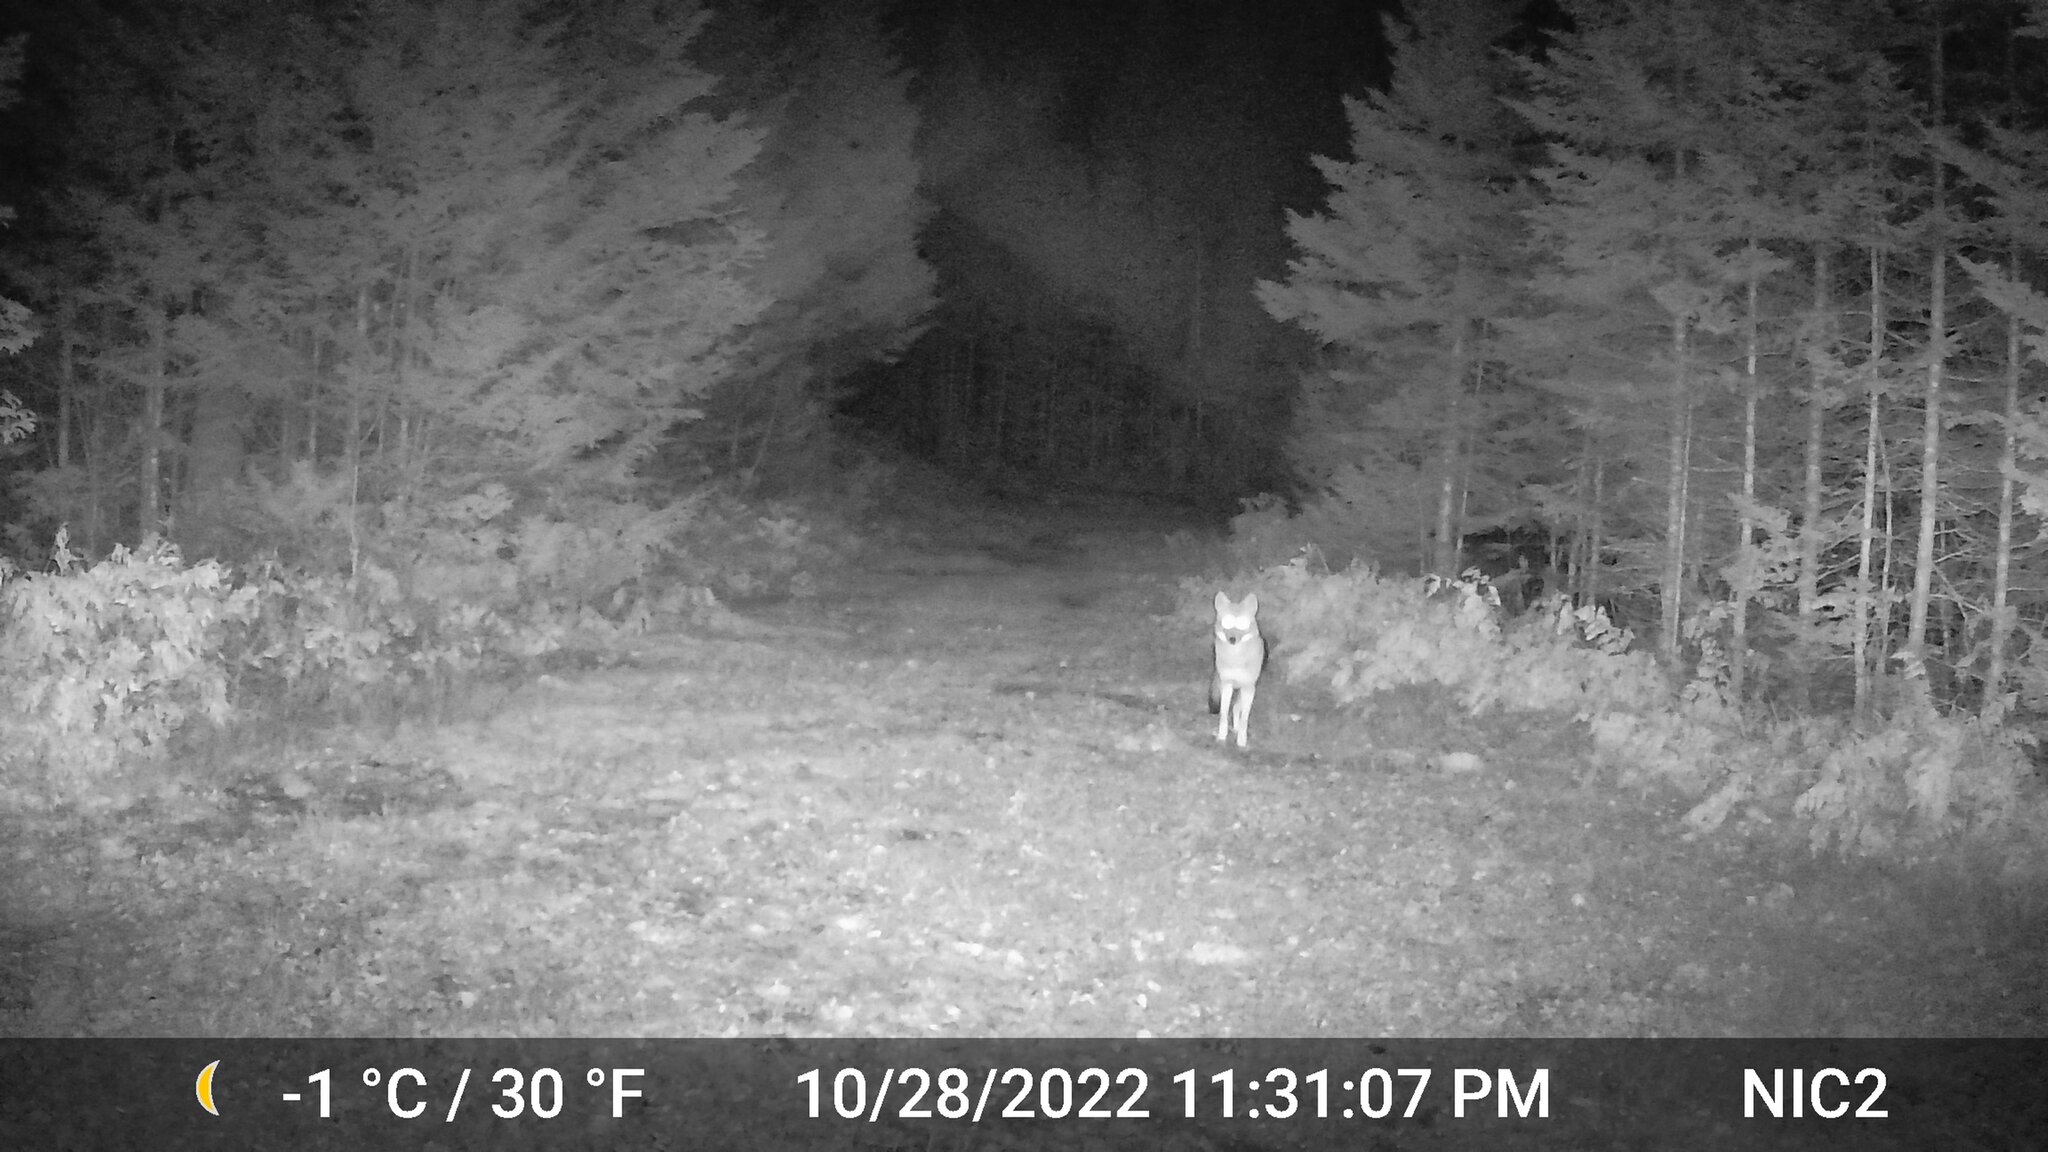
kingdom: Animalia
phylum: Chordata
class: Mammalia
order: Carnivora
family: Canidae
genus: Canis
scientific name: Canis latrans
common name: Coyote
